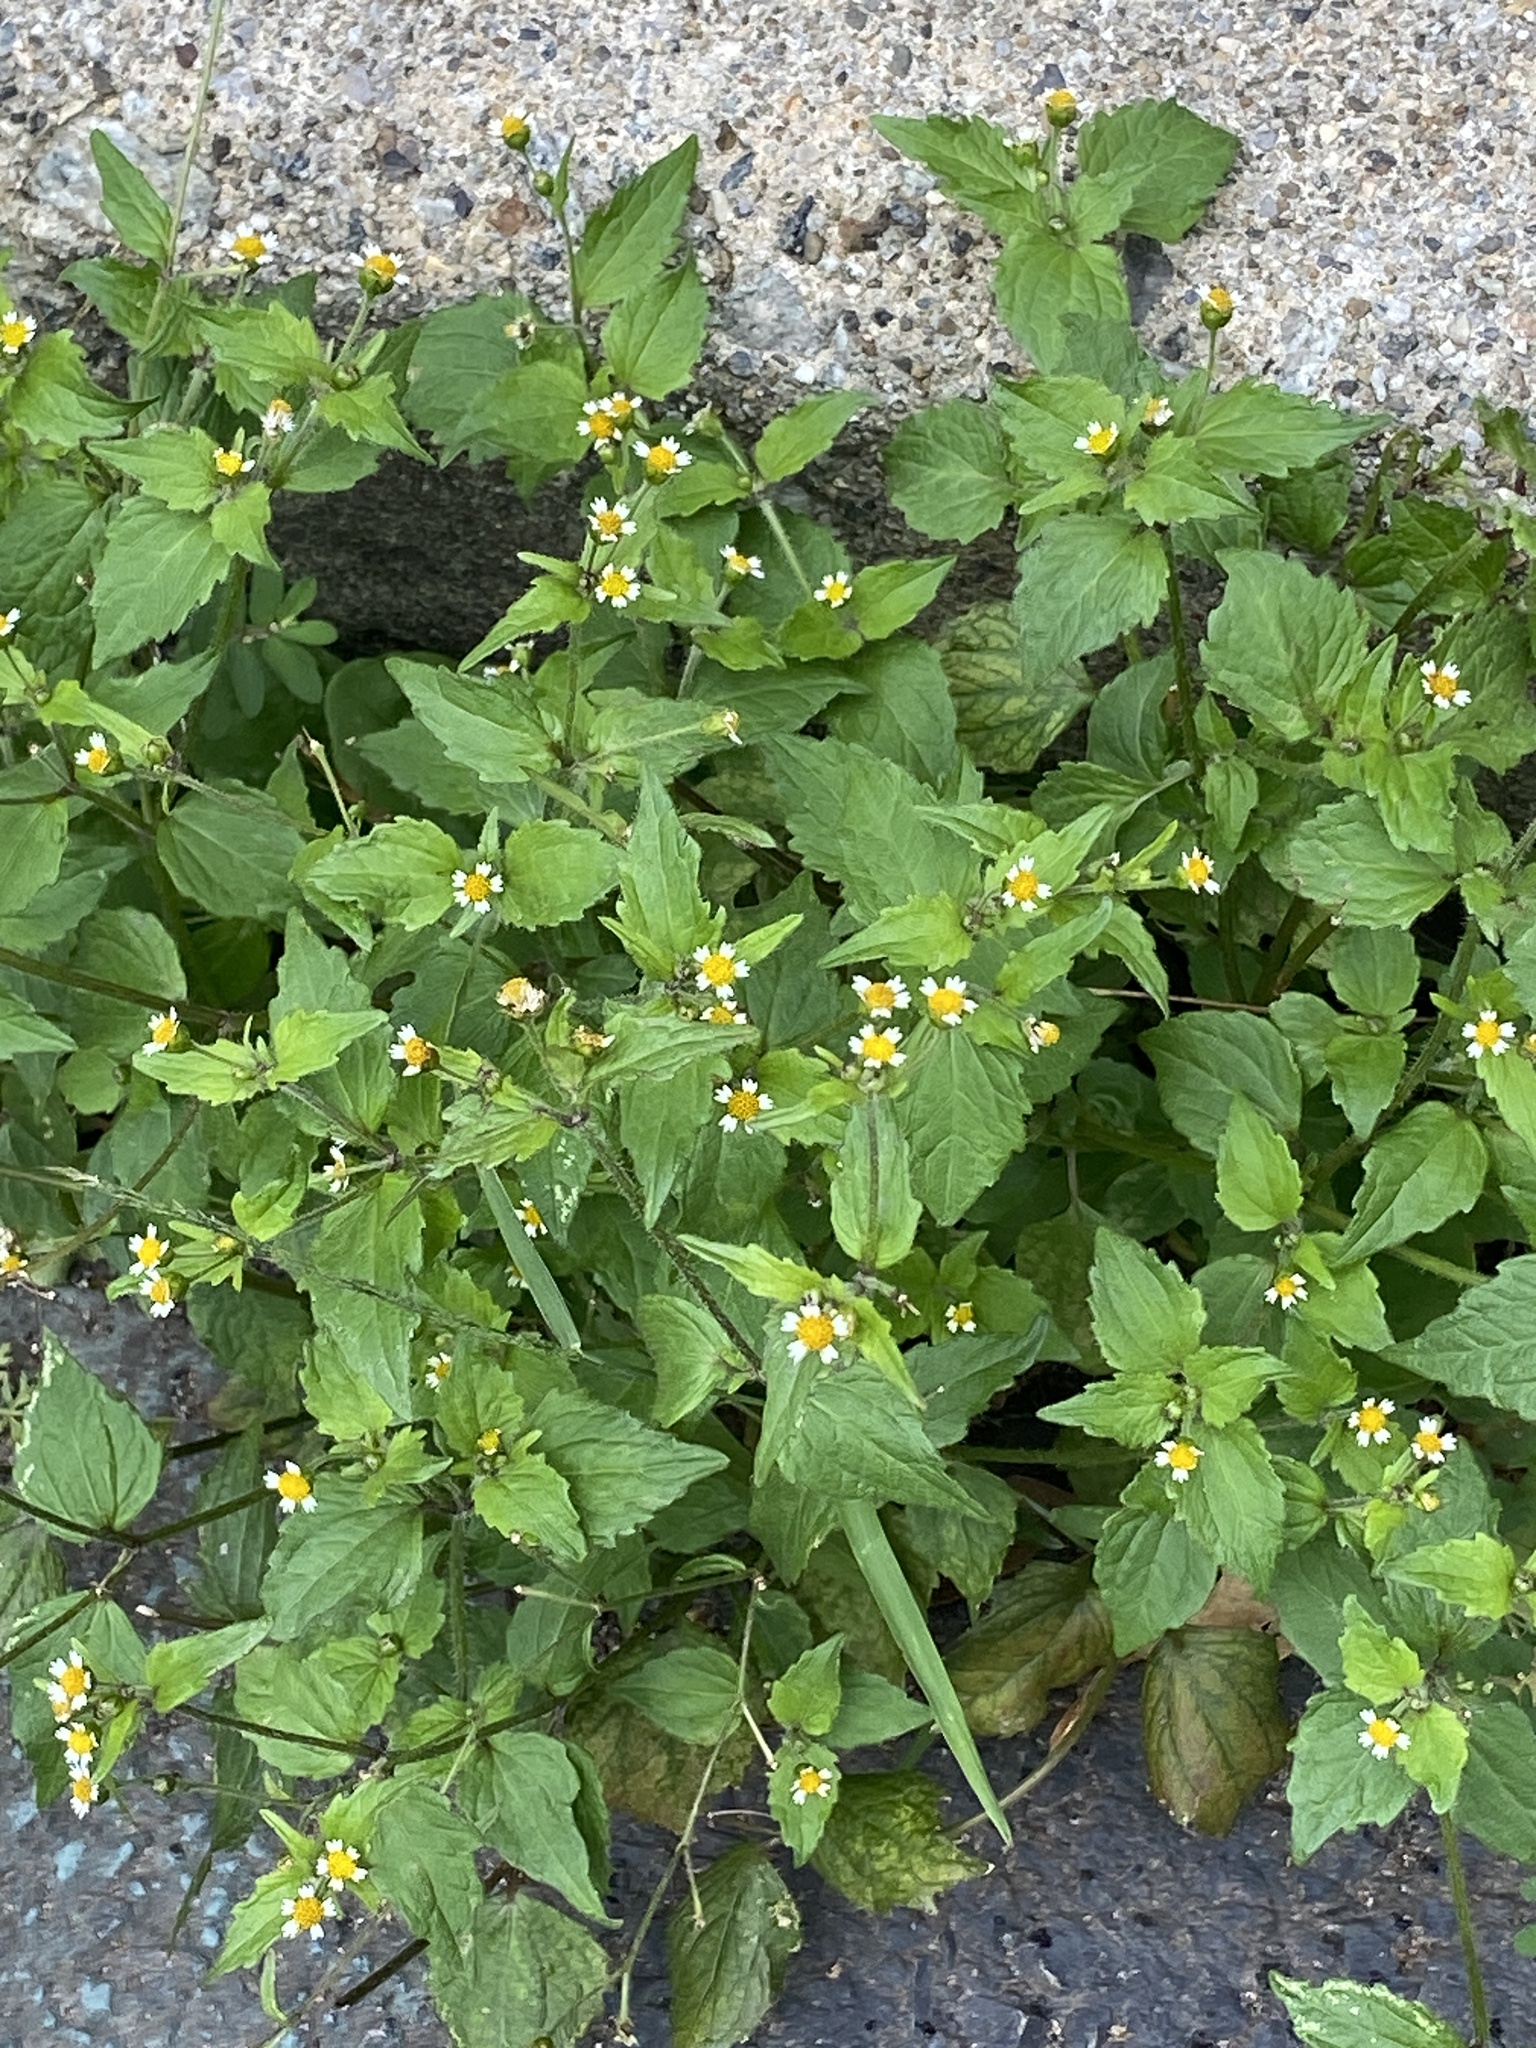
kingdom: Plantae
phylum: Tracheophyta
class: Magnoliopsida
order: Asterales
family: Asteraceae
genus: Galinsoga
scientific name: Galinsoga quadriradiata
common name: Shaggy soldier
